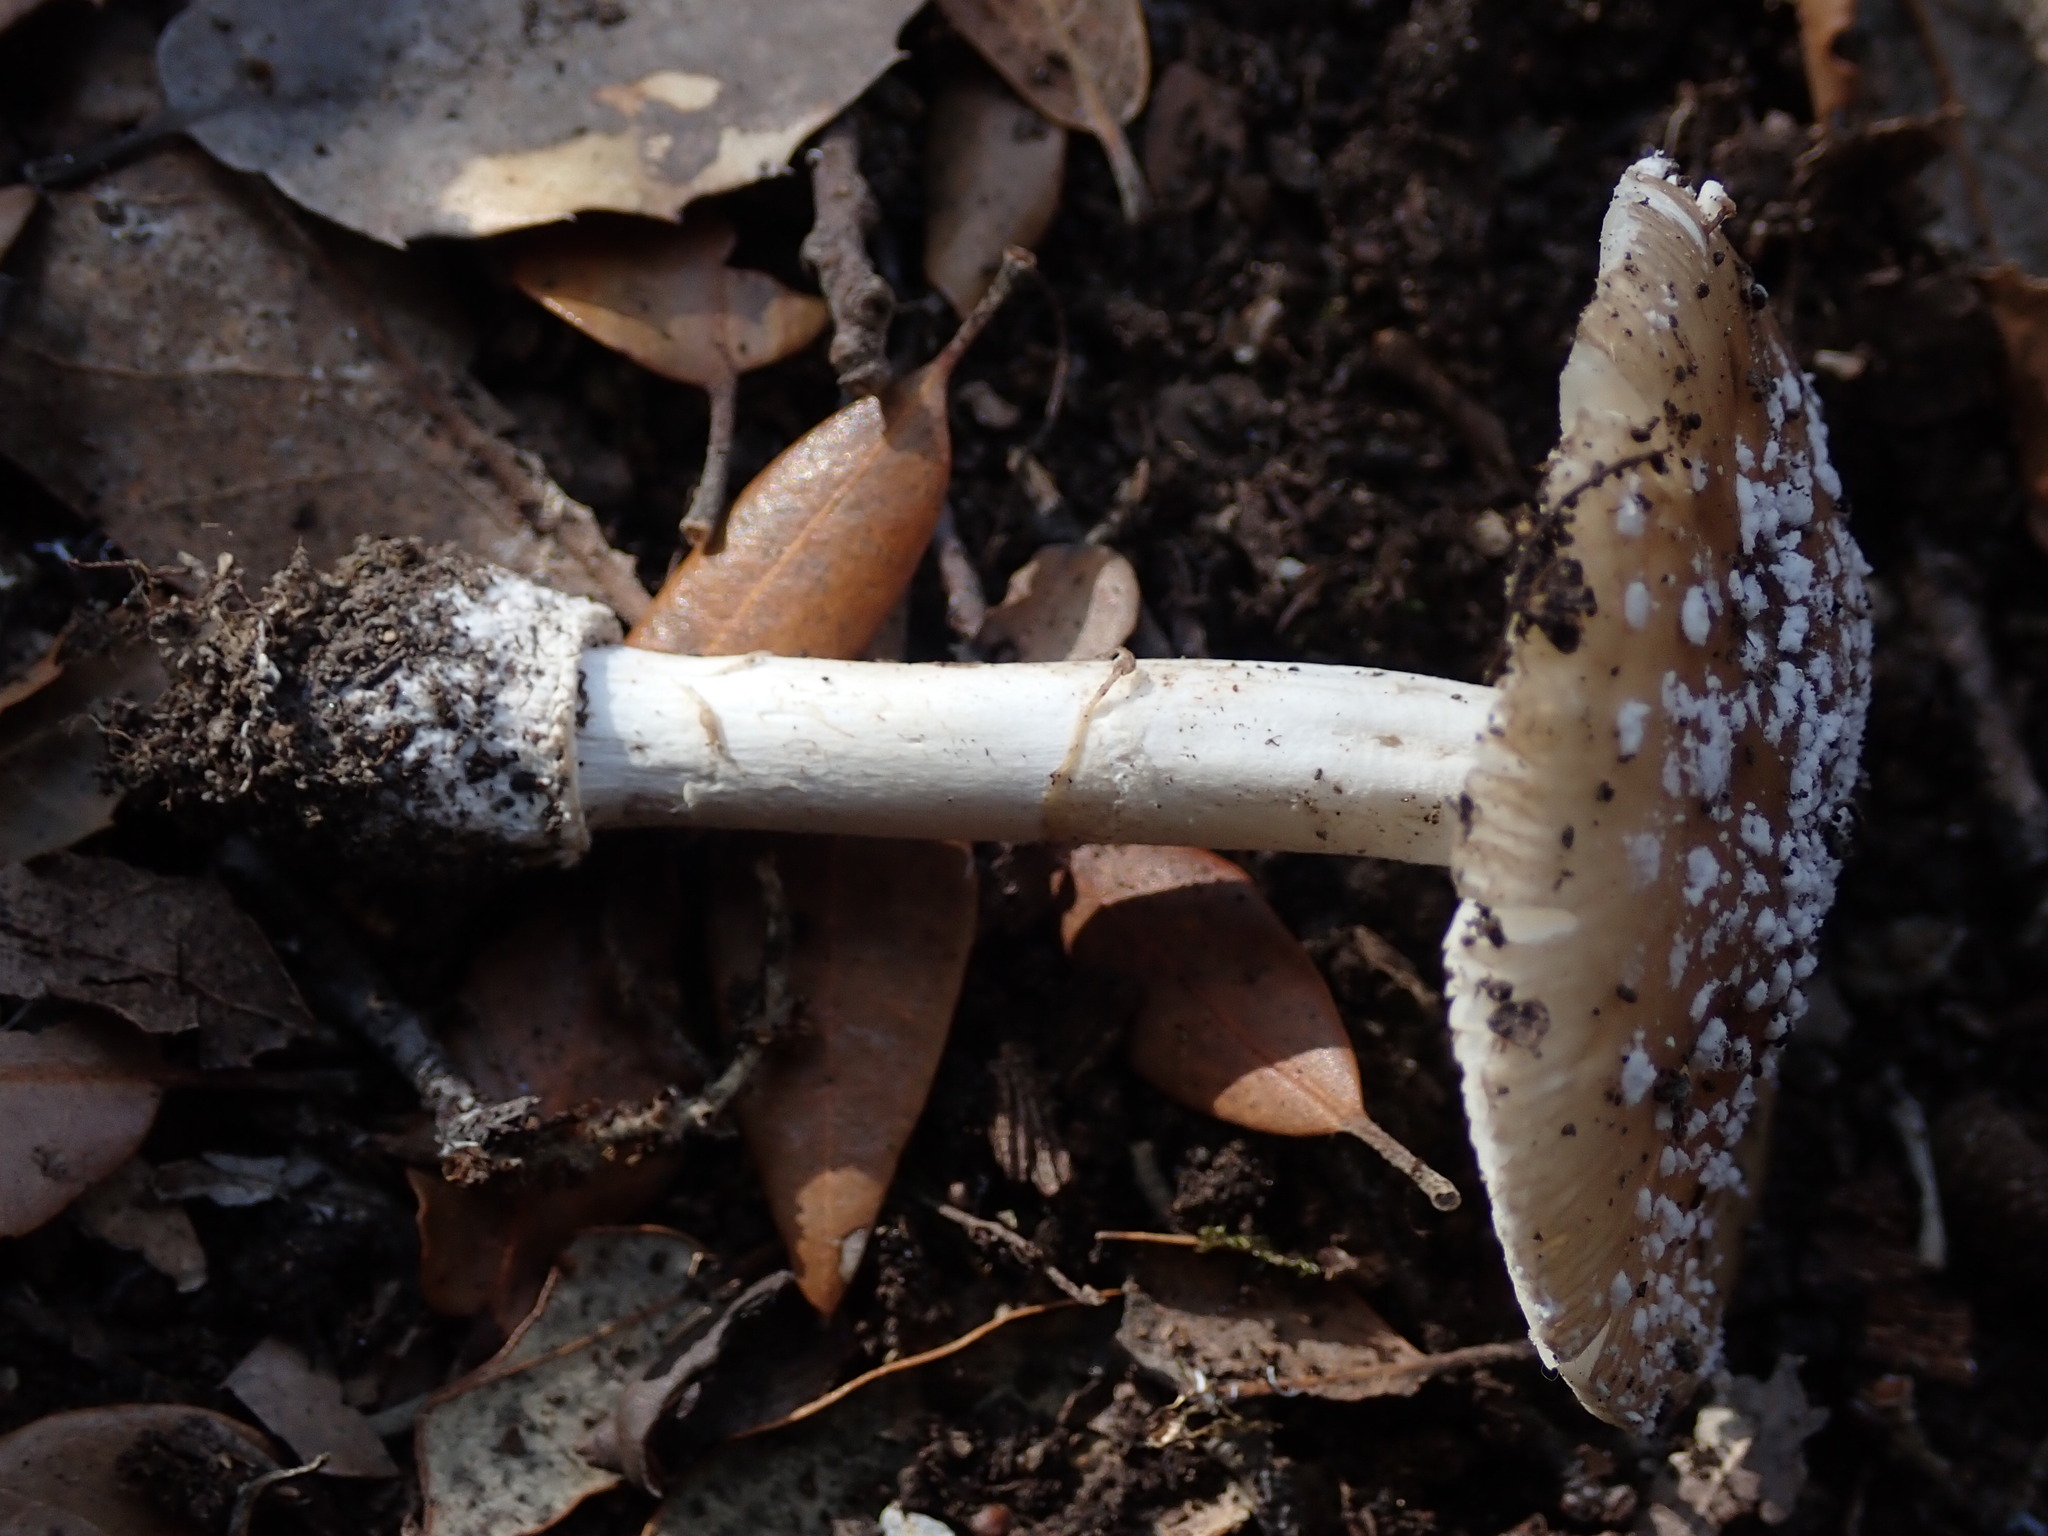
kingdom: Fungi
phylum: Basidiomycota
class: Agaricomycetes
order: Agaricales
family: Amanitaceae
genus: Amanita
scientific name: Amanita pantherina
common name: Panthercap
